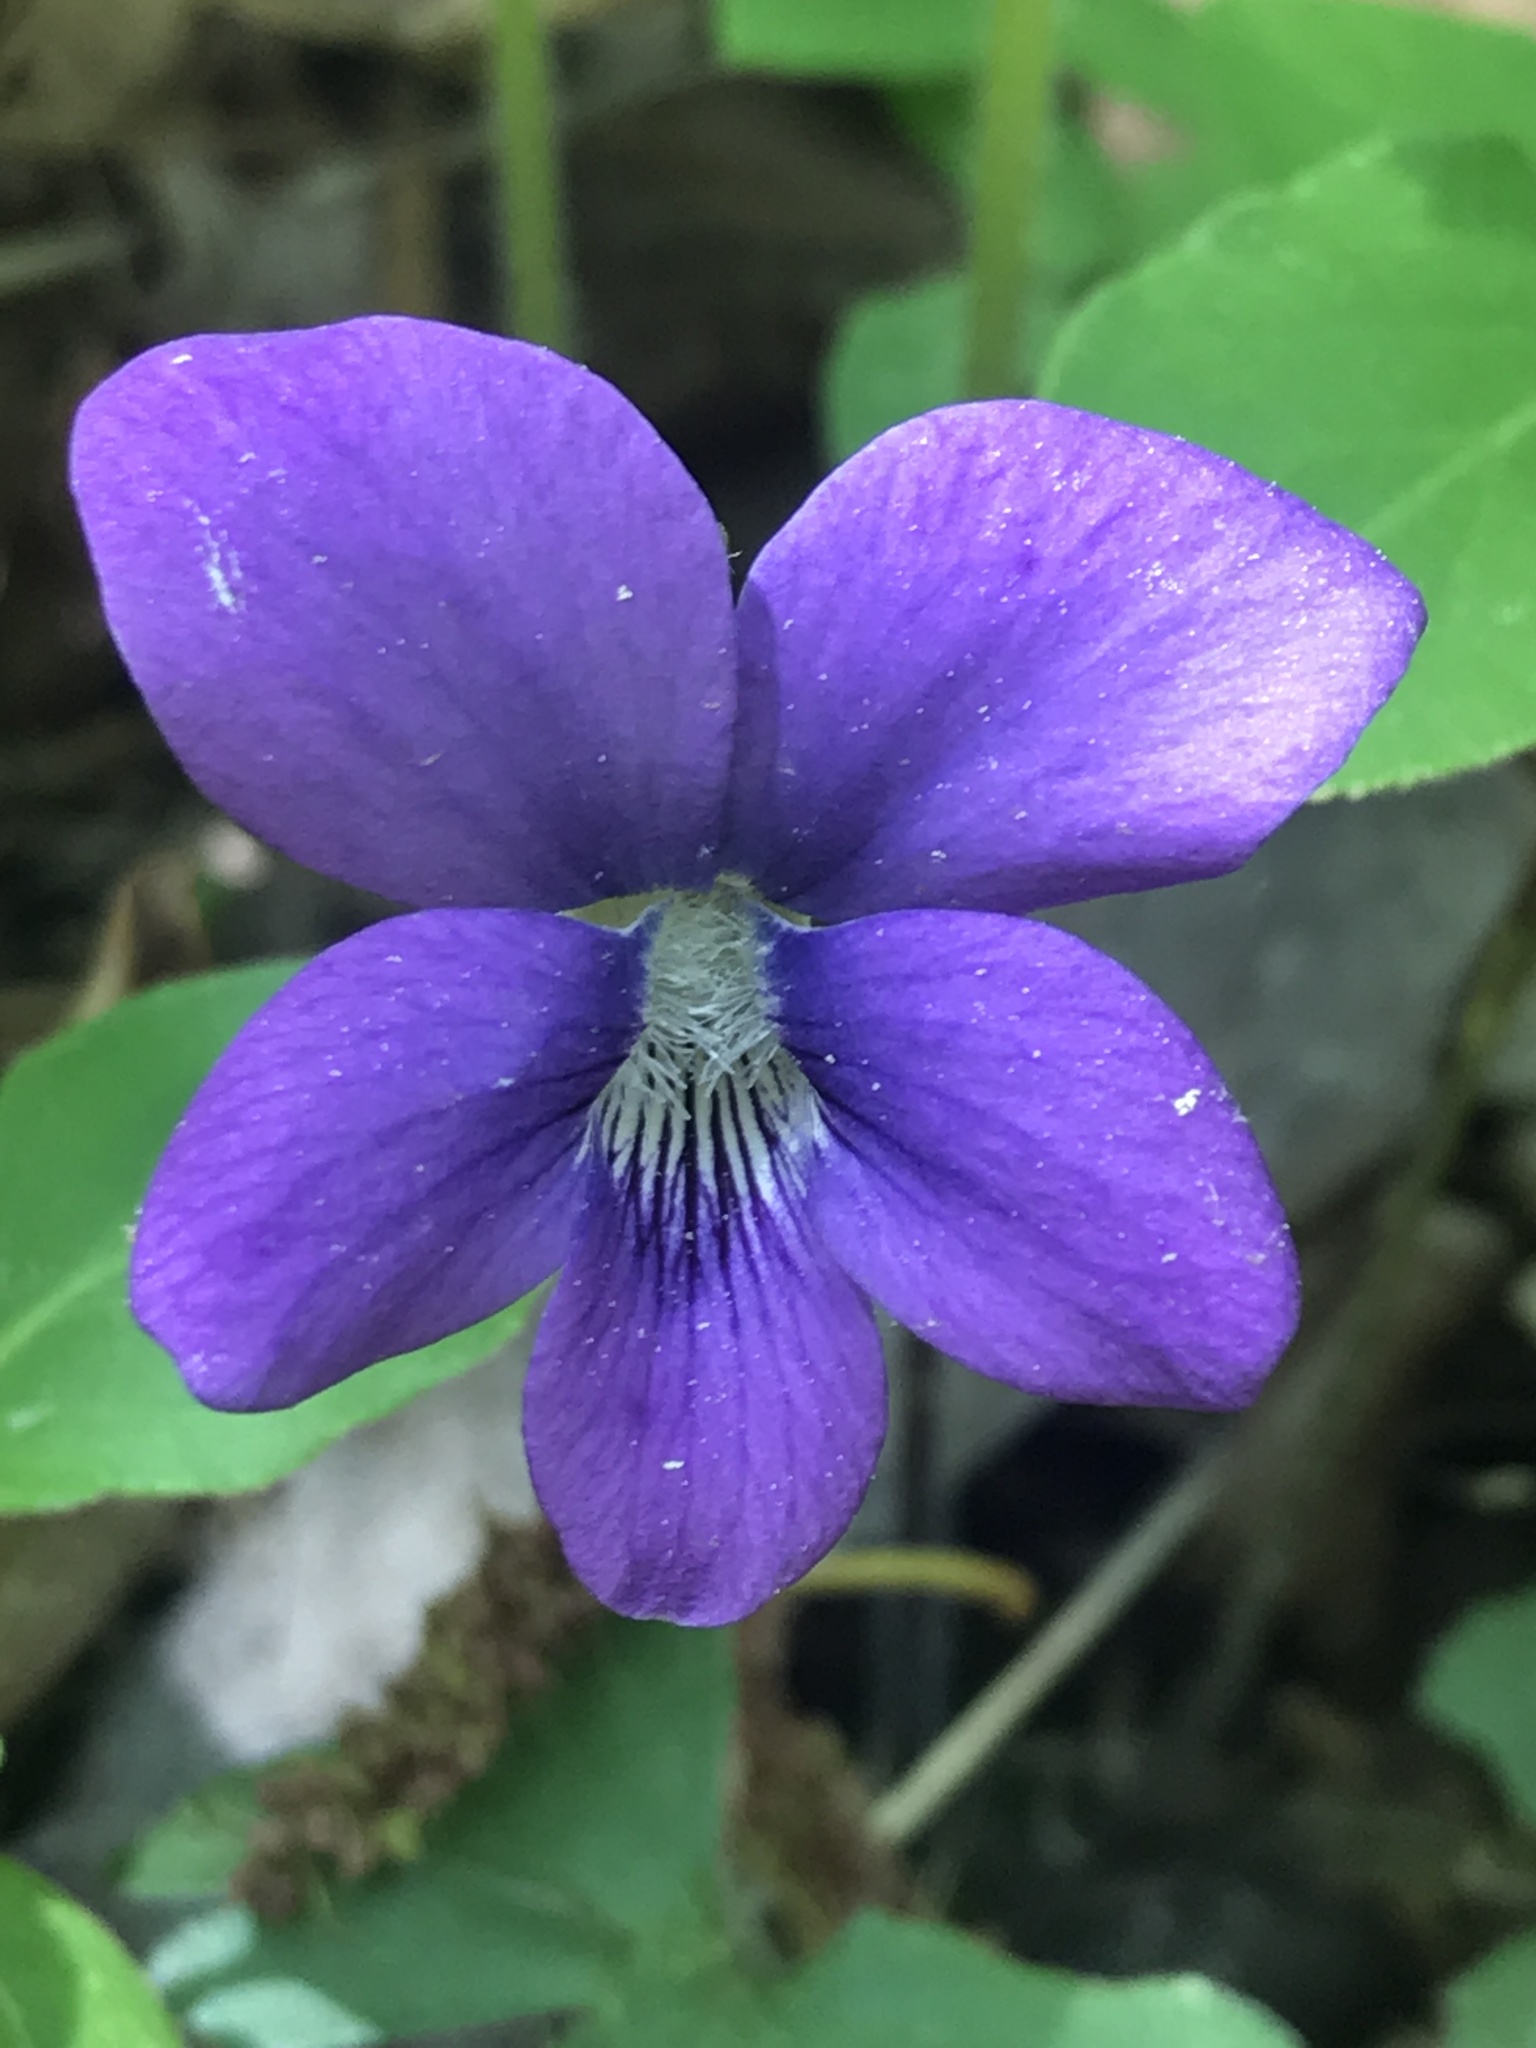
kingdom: Plantae
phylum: Tracheophyta
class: Magnoliopsida
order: Malpighiales
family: Violaceae
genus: Viola
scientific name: Viola palmata
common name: Early blue violet
